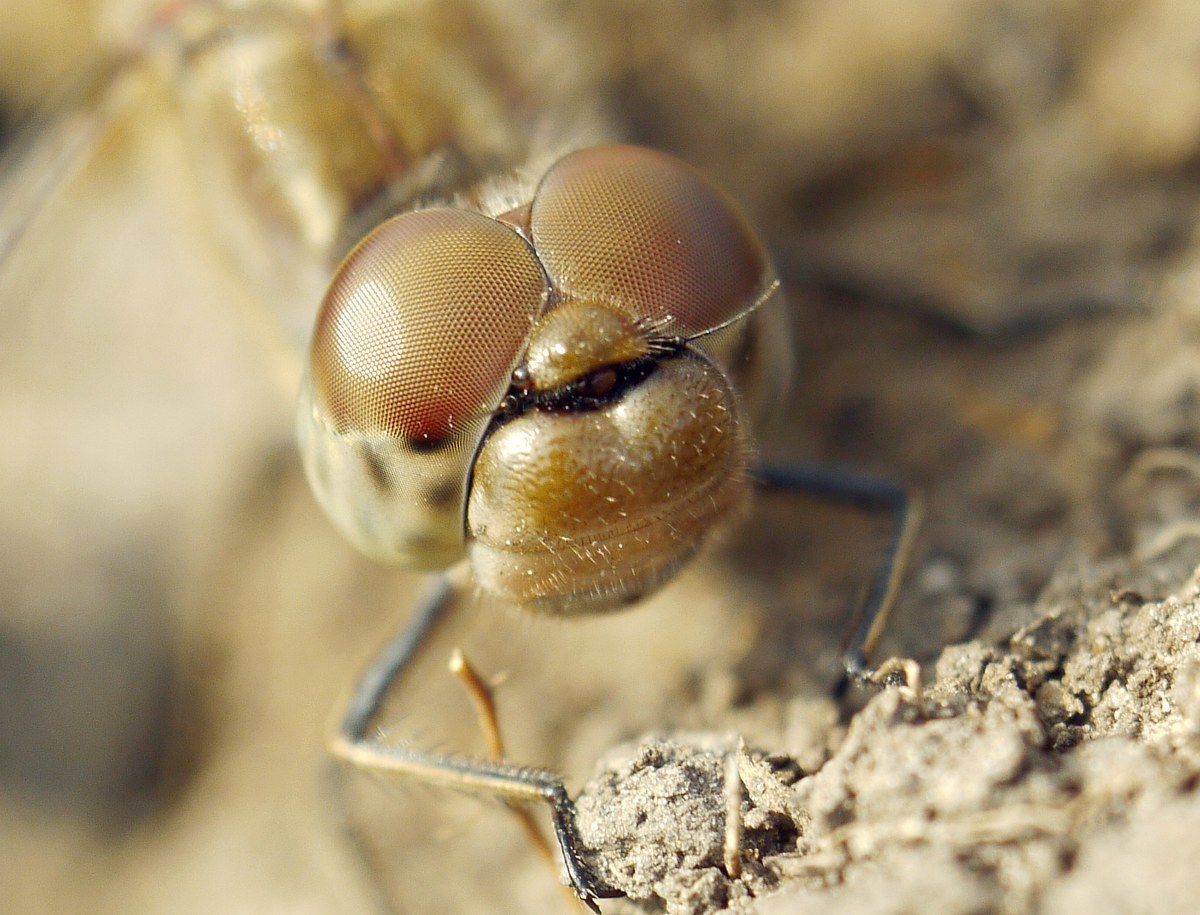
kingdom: Animalia
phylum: Arthropoda
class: Insecta
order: Odonata
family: Libellulidae
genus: Sympetrum
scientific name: Sympetrum
